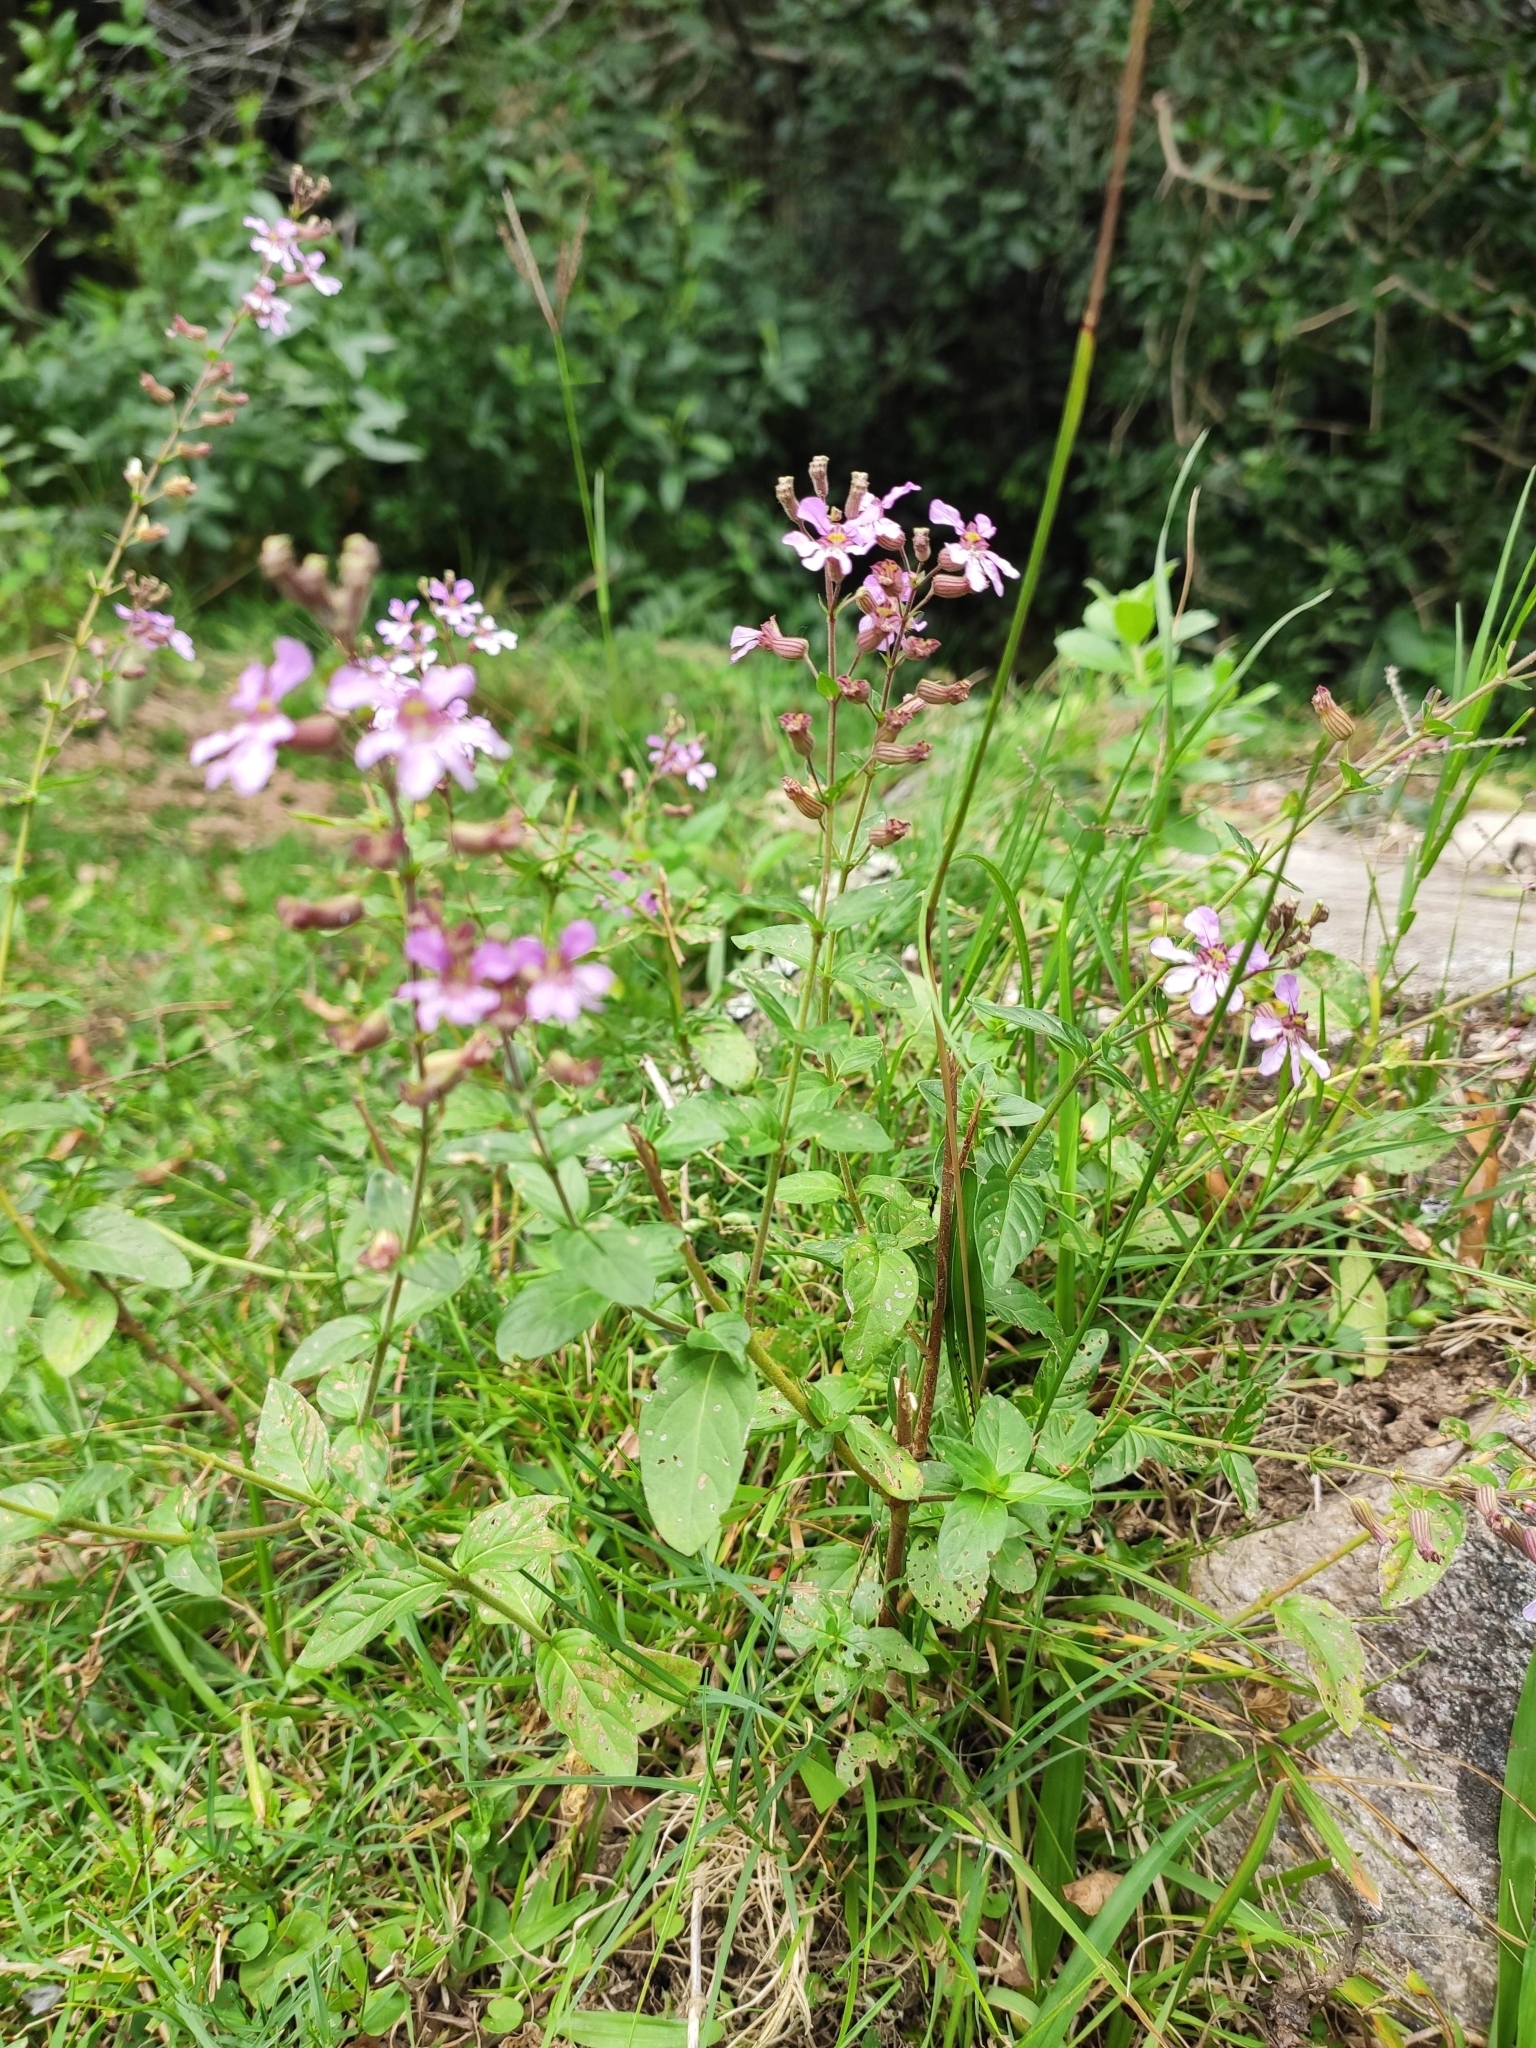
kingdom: Plantae
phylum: Tracheophyta
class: Magnoliopsida
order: Myrtales
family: Lythraceae
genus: Cuphea
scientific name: Cuphea racemosa
